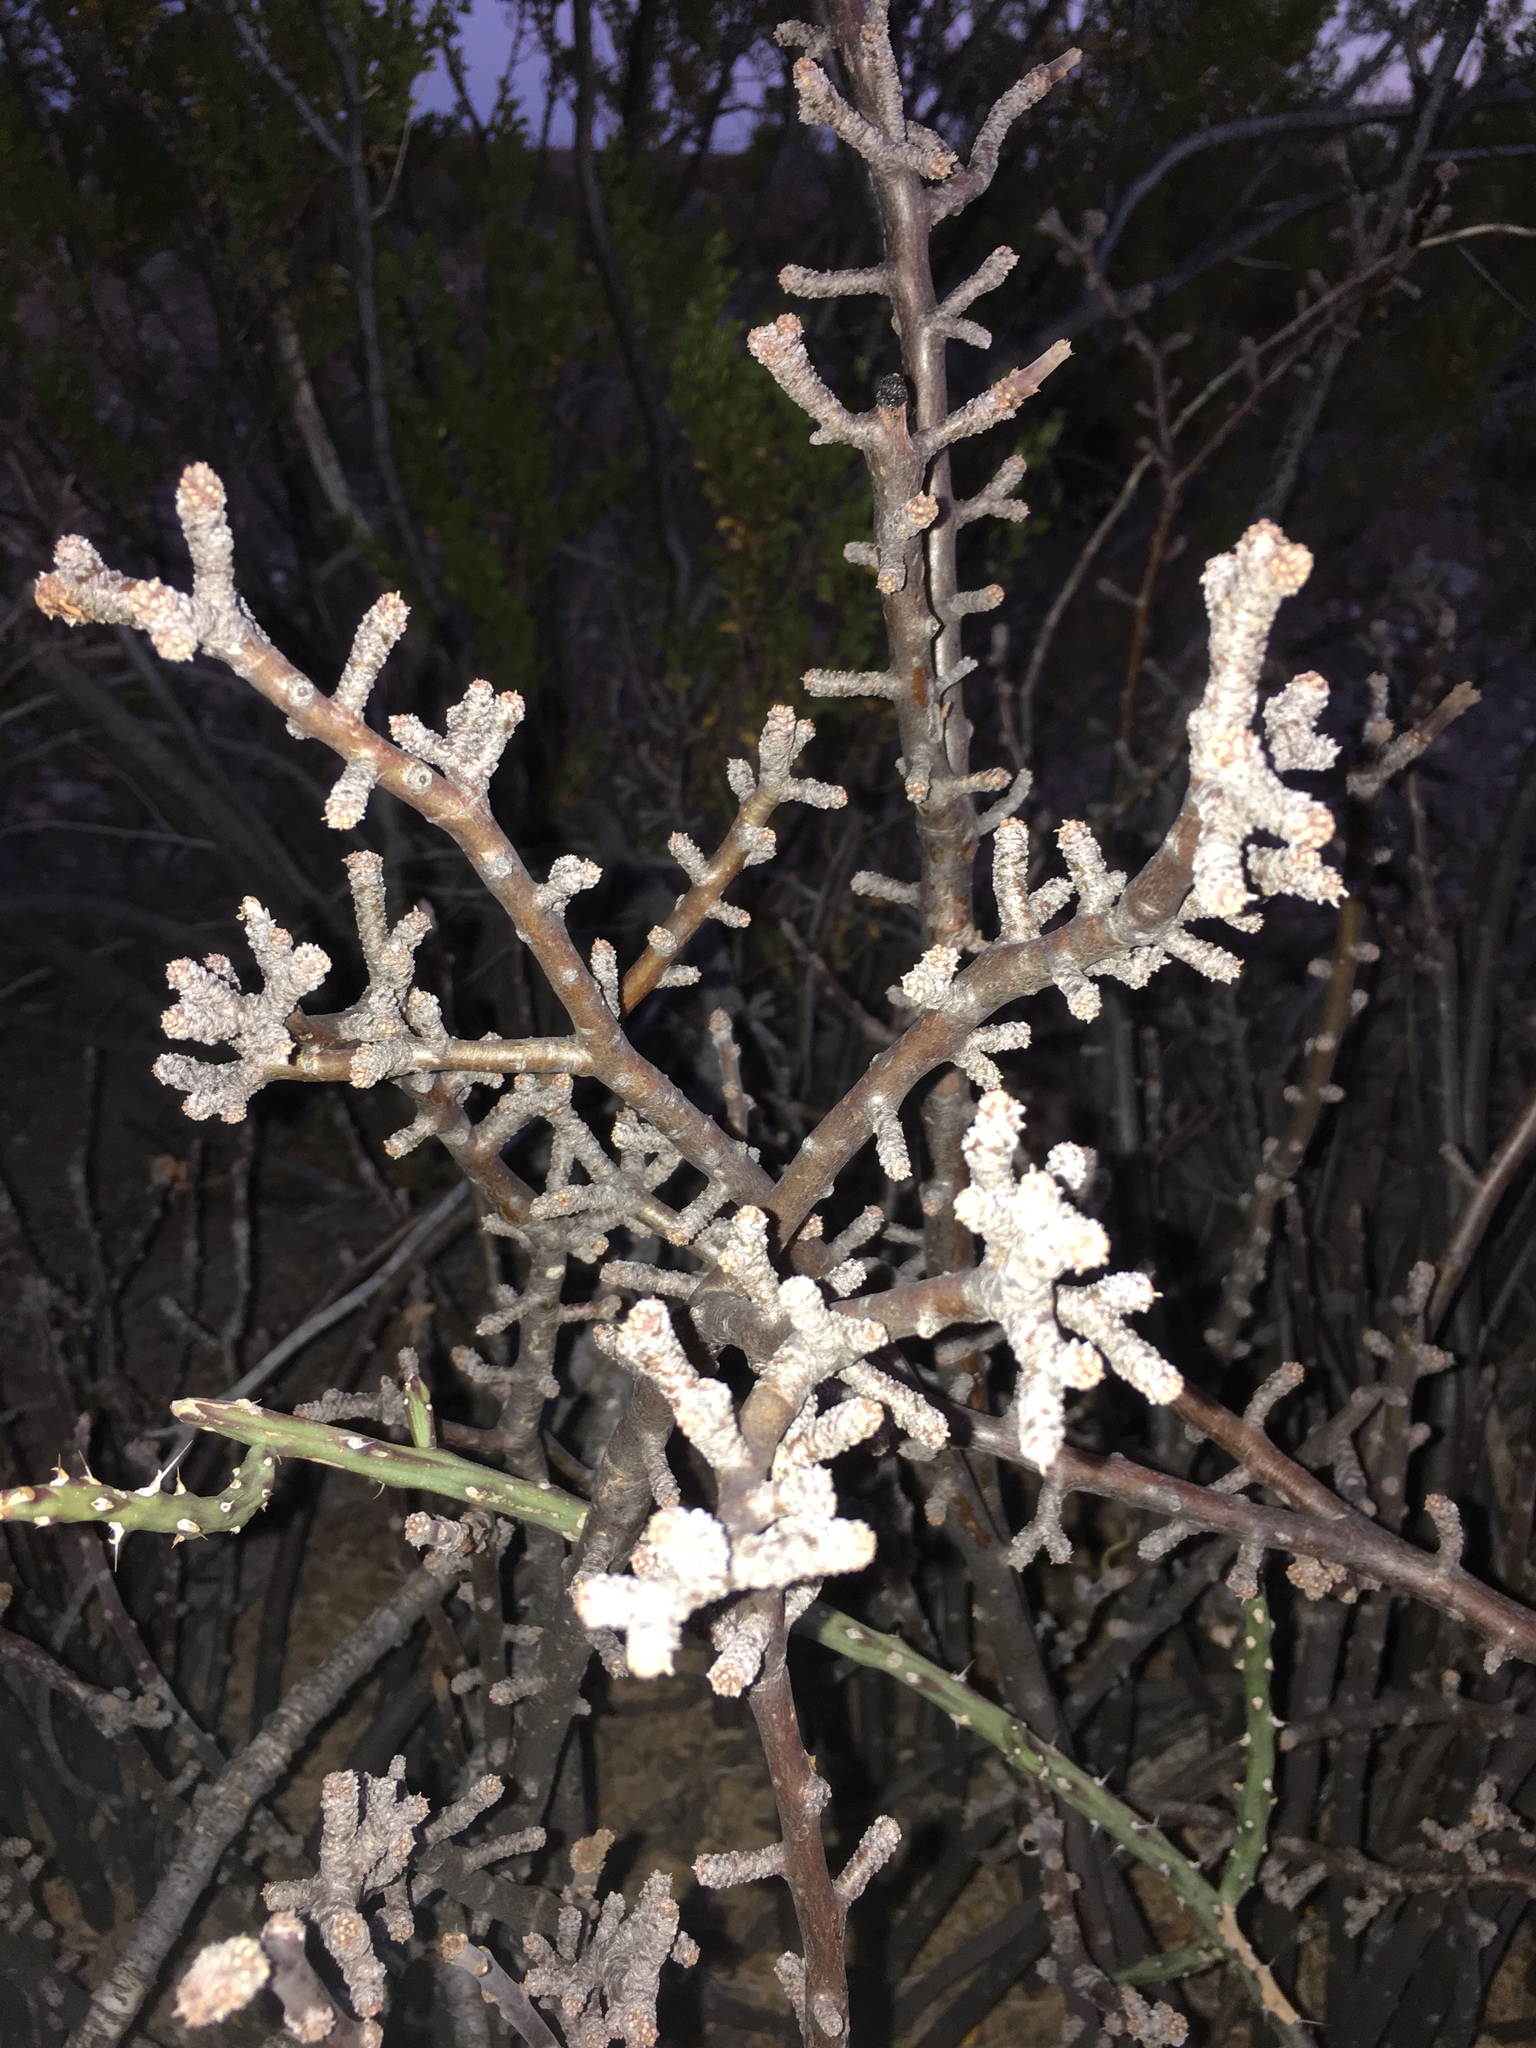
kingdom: Plantae
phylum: Tracheophyta
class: Magnoliopsida
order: Malpighiales
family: Euphorbiaceae
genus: Jatropha
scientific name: Jatropha dioica
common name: Leatherstem
